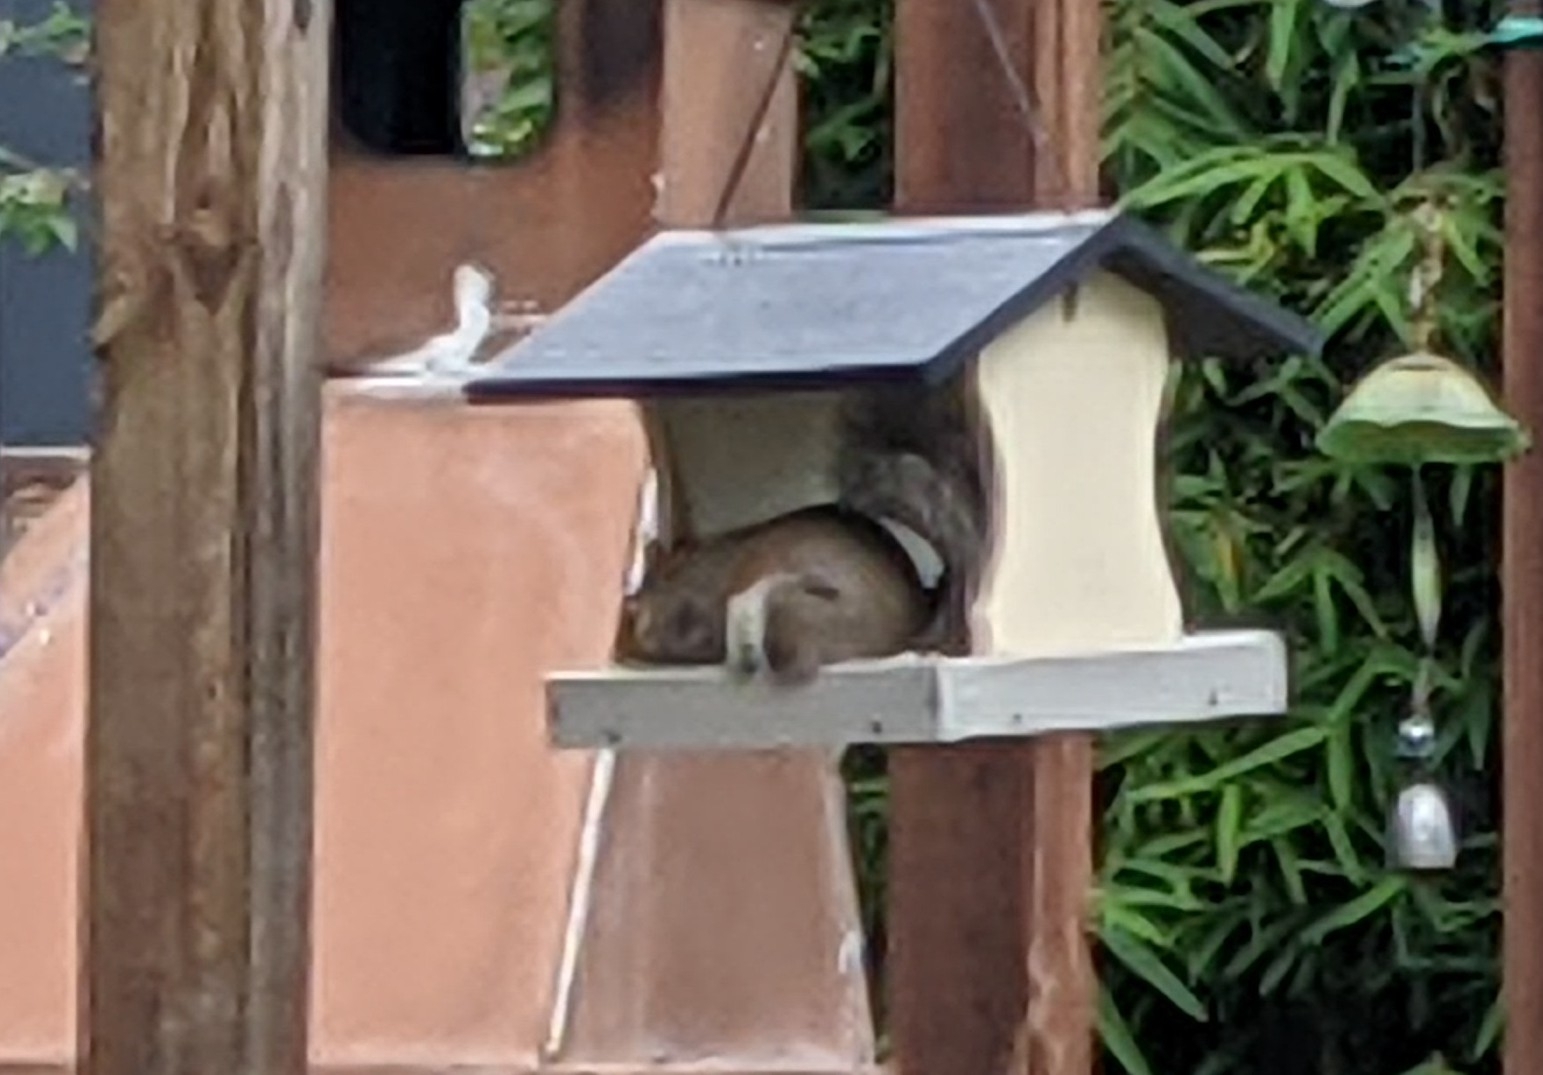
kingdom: Animalia
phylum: Chordata
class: Mammalia
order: Rodentia
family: Sciuridae
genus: Sciurus
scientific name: Sciurus carolinensis
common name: Eastern gray squirrel
